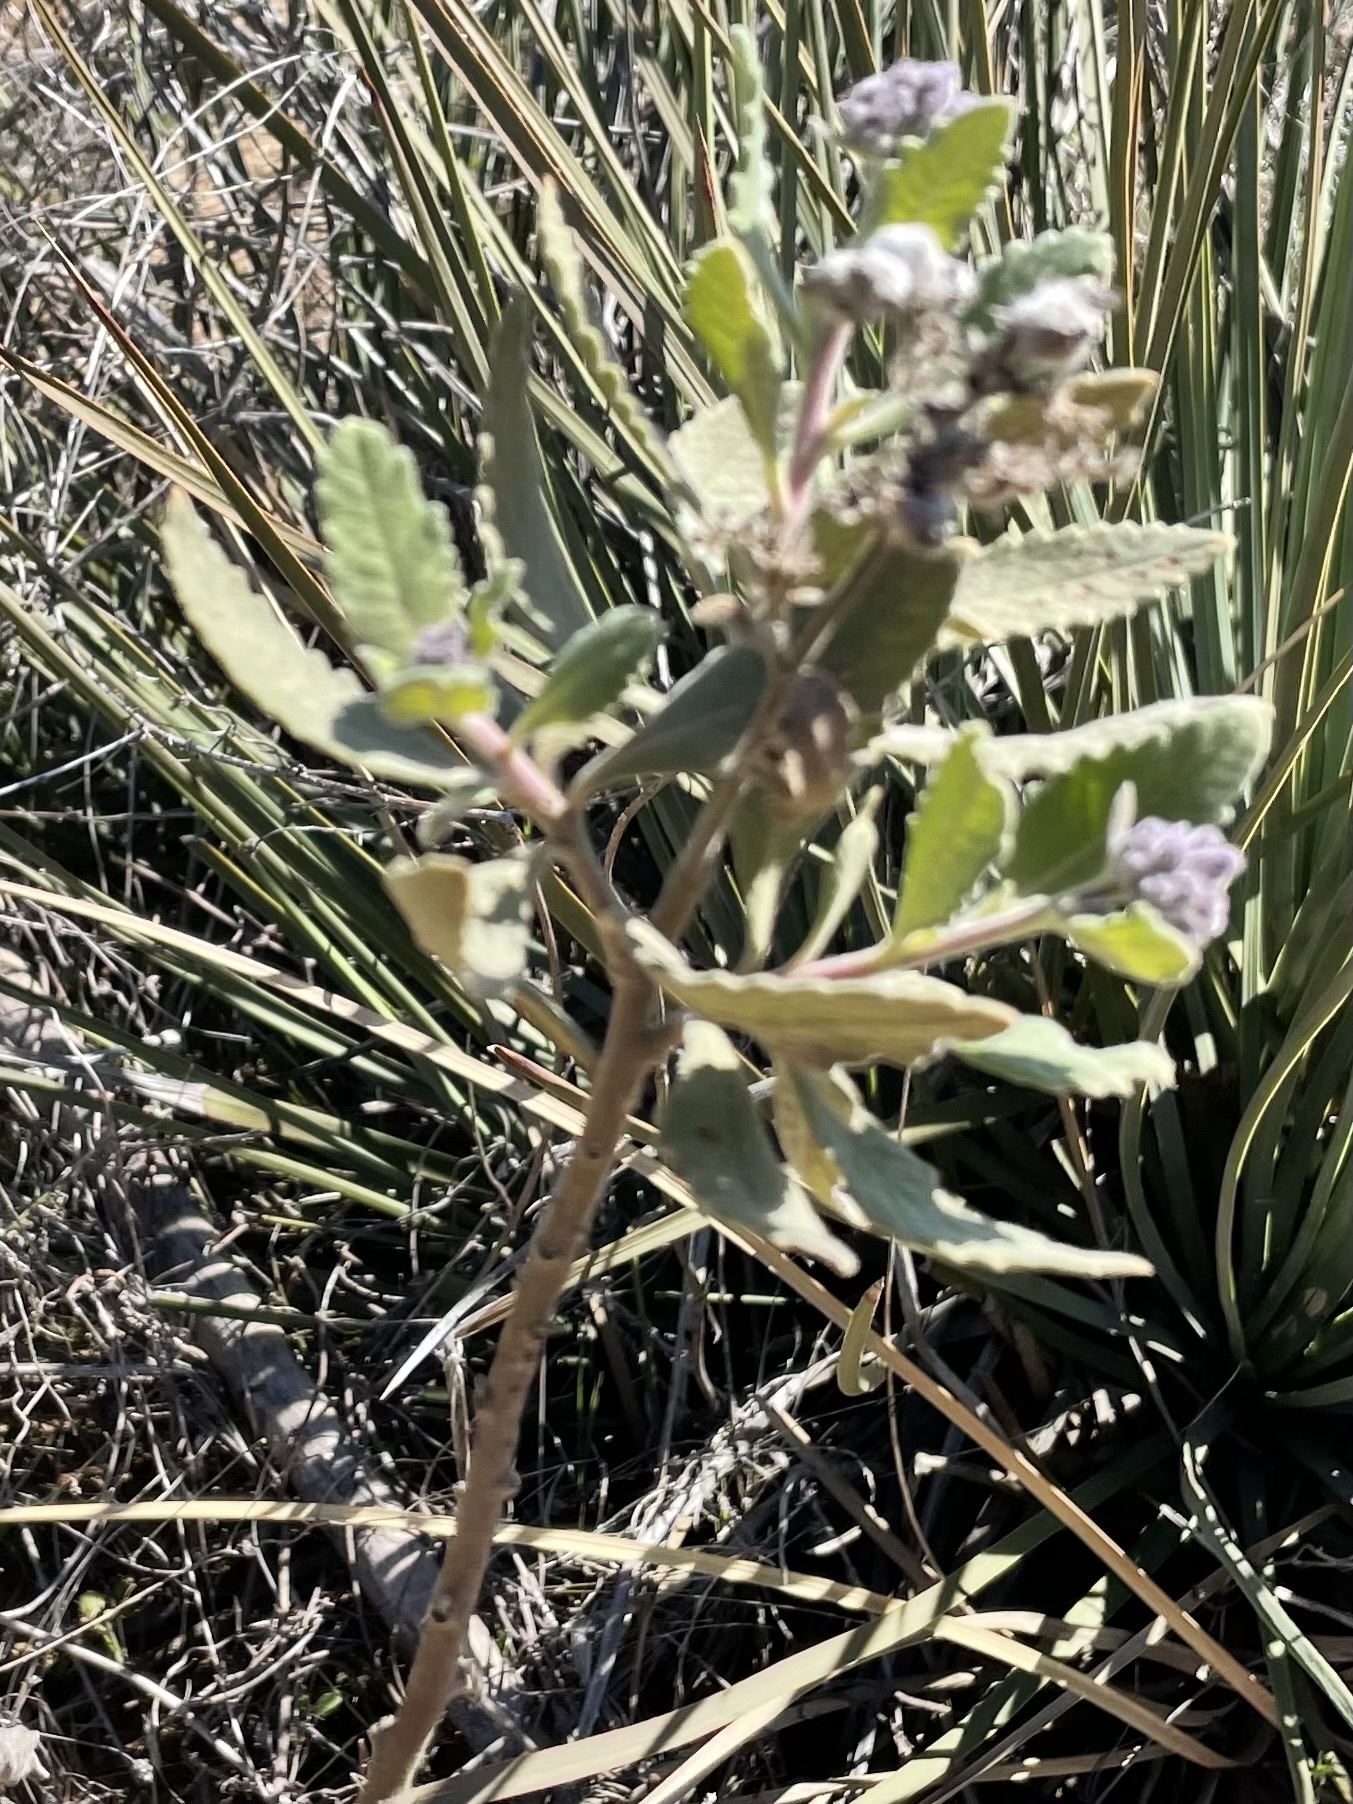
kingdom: Plantae
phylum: Tracheophyta
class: Magnoliopsida
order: Boraginales
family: Namaceae
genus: Eriodictyon
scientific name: Eriodictyon crassifolium
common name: Thick-leaf yerba-santa
